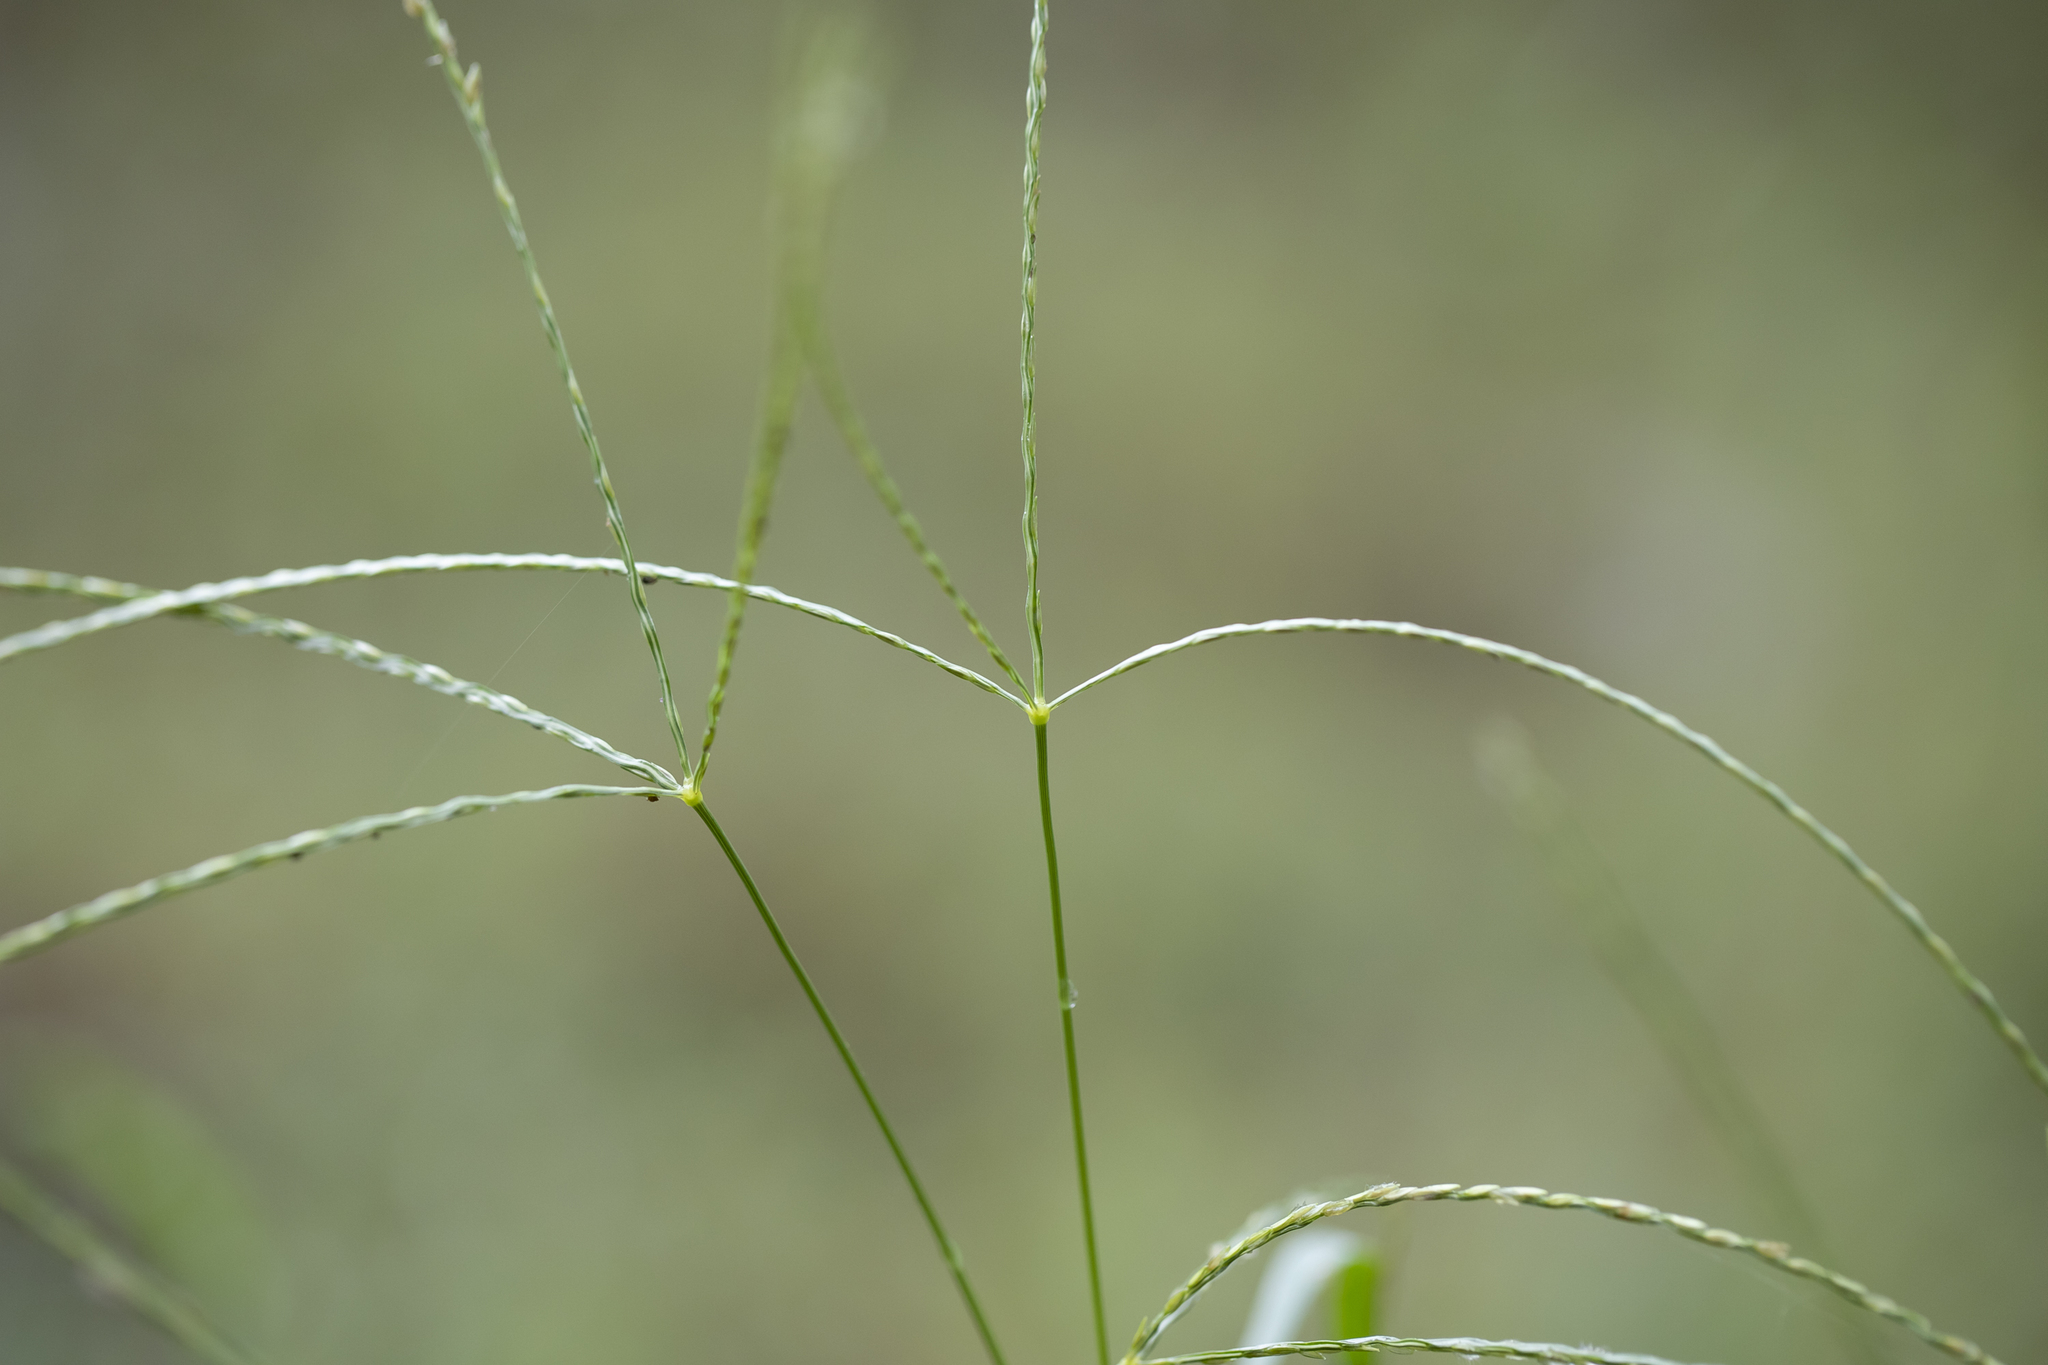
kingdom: Plantae
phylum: Tracheophyta
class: Liliopsida
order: Poales
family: Poaceae
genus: Digitaria
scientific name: Digitaria ciliaris
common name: Tropical finger-grass
